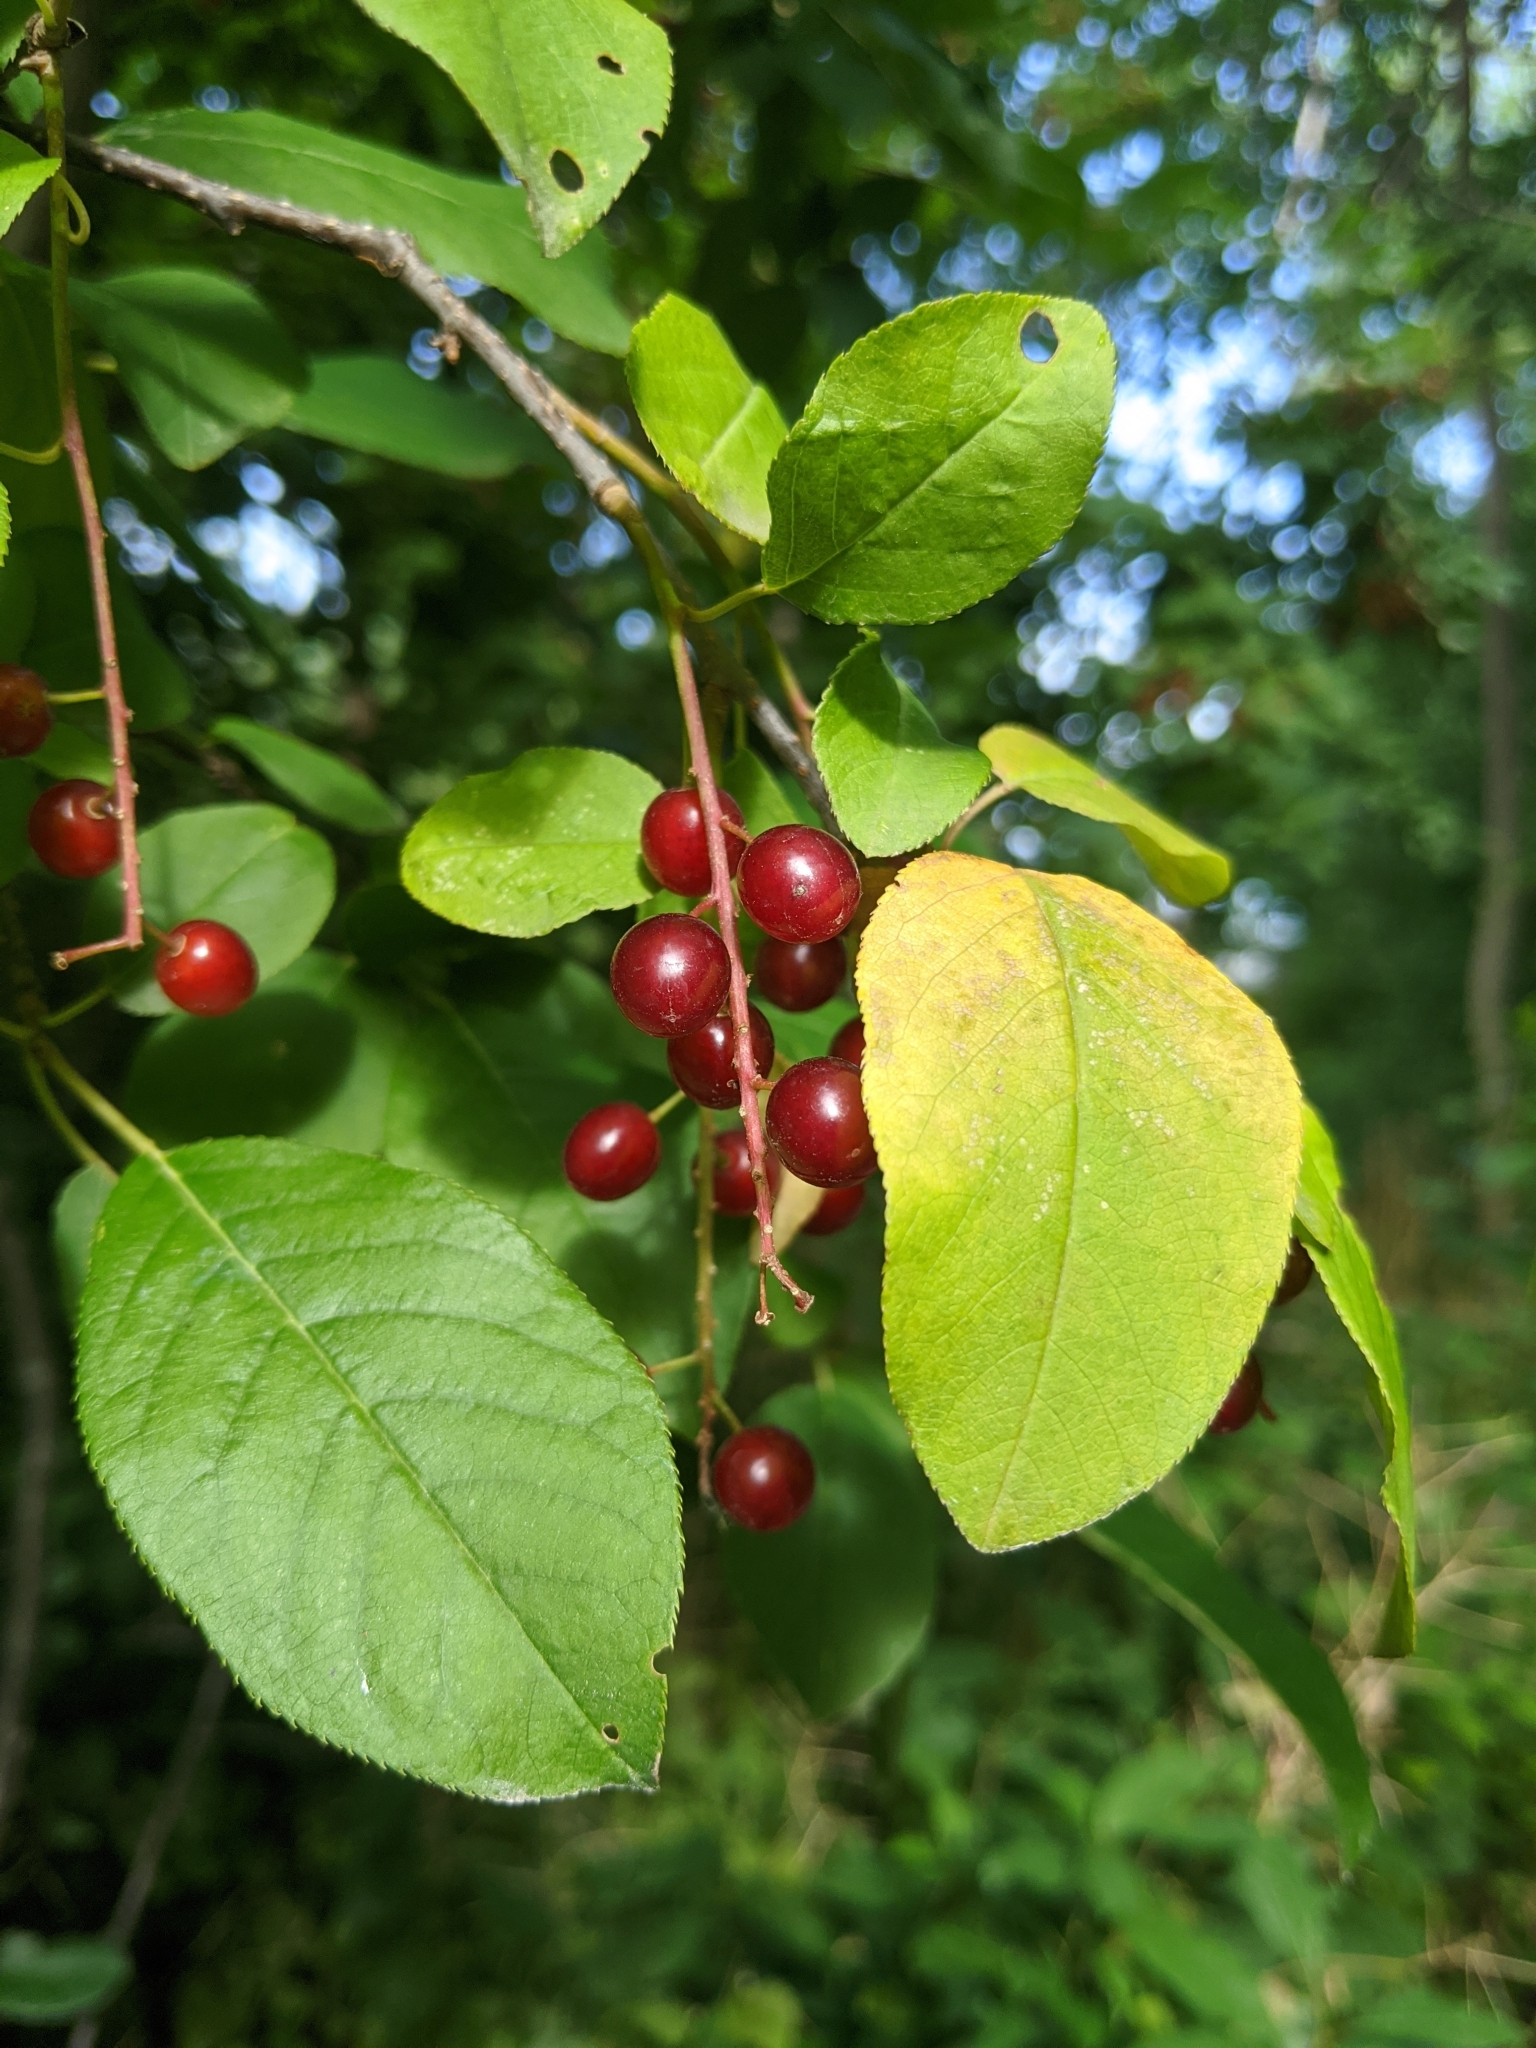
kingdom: Plantae
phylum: Tracheophyta
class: Magnoliopsida
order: Rosales
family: Rosaceae
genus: Prunus
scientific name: Prunus virginiana
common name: Chokecherry
